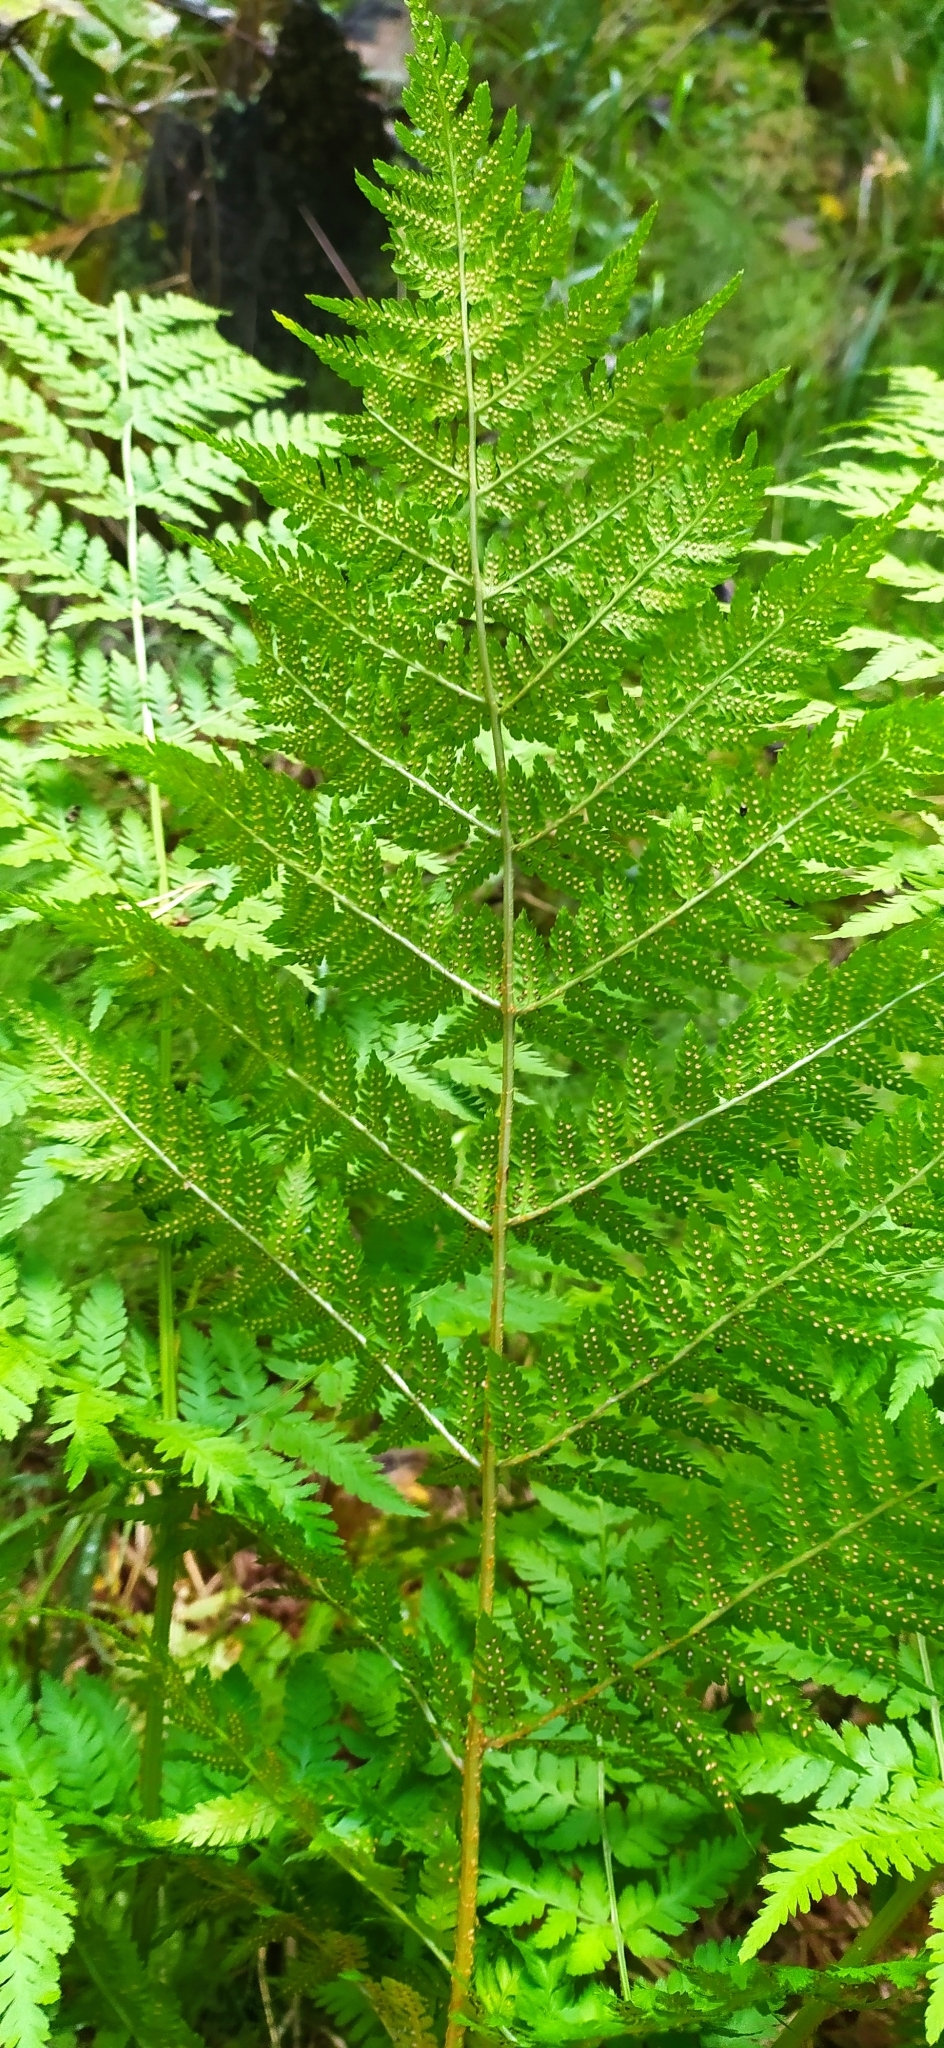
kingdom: Plantae
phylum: Tracheophyta
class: Polypodiopsida
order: Polypodiales
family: Dryopteridaceae
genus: Dryopteris
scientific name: Dryopteris expansa
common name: Northern buckler fern
